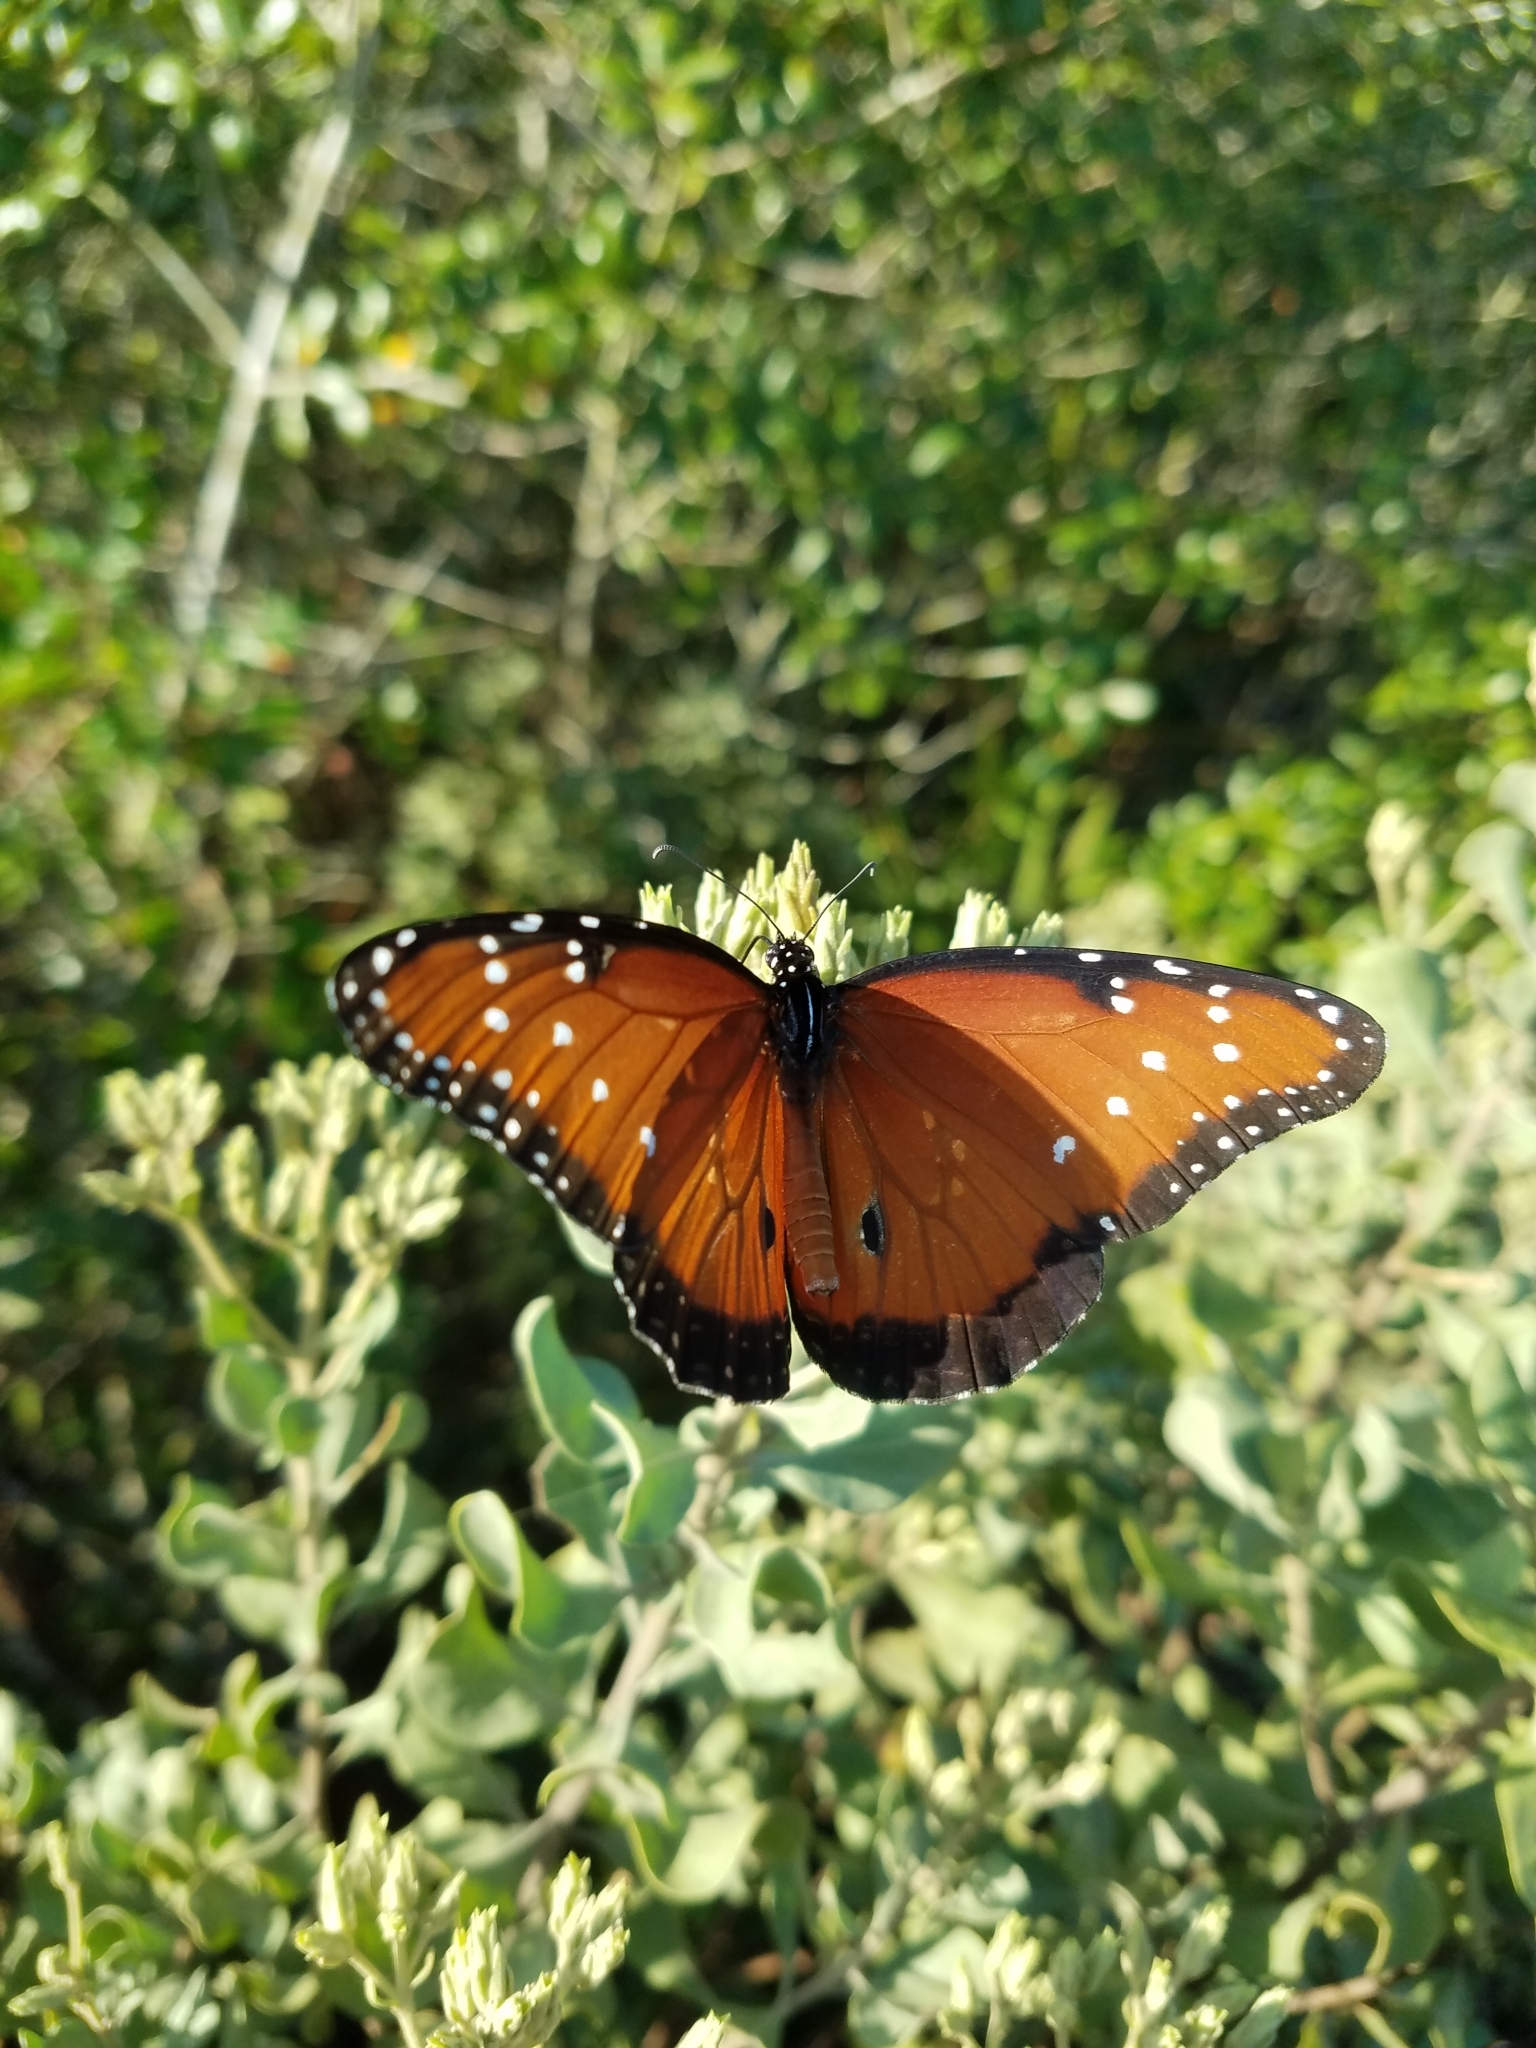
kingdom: Animalia
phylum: Arthropoda
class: Insecta
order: Lepidoptera
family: Nymphalidae
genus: Danaus
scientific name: Danaus gilippus
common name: Queen
